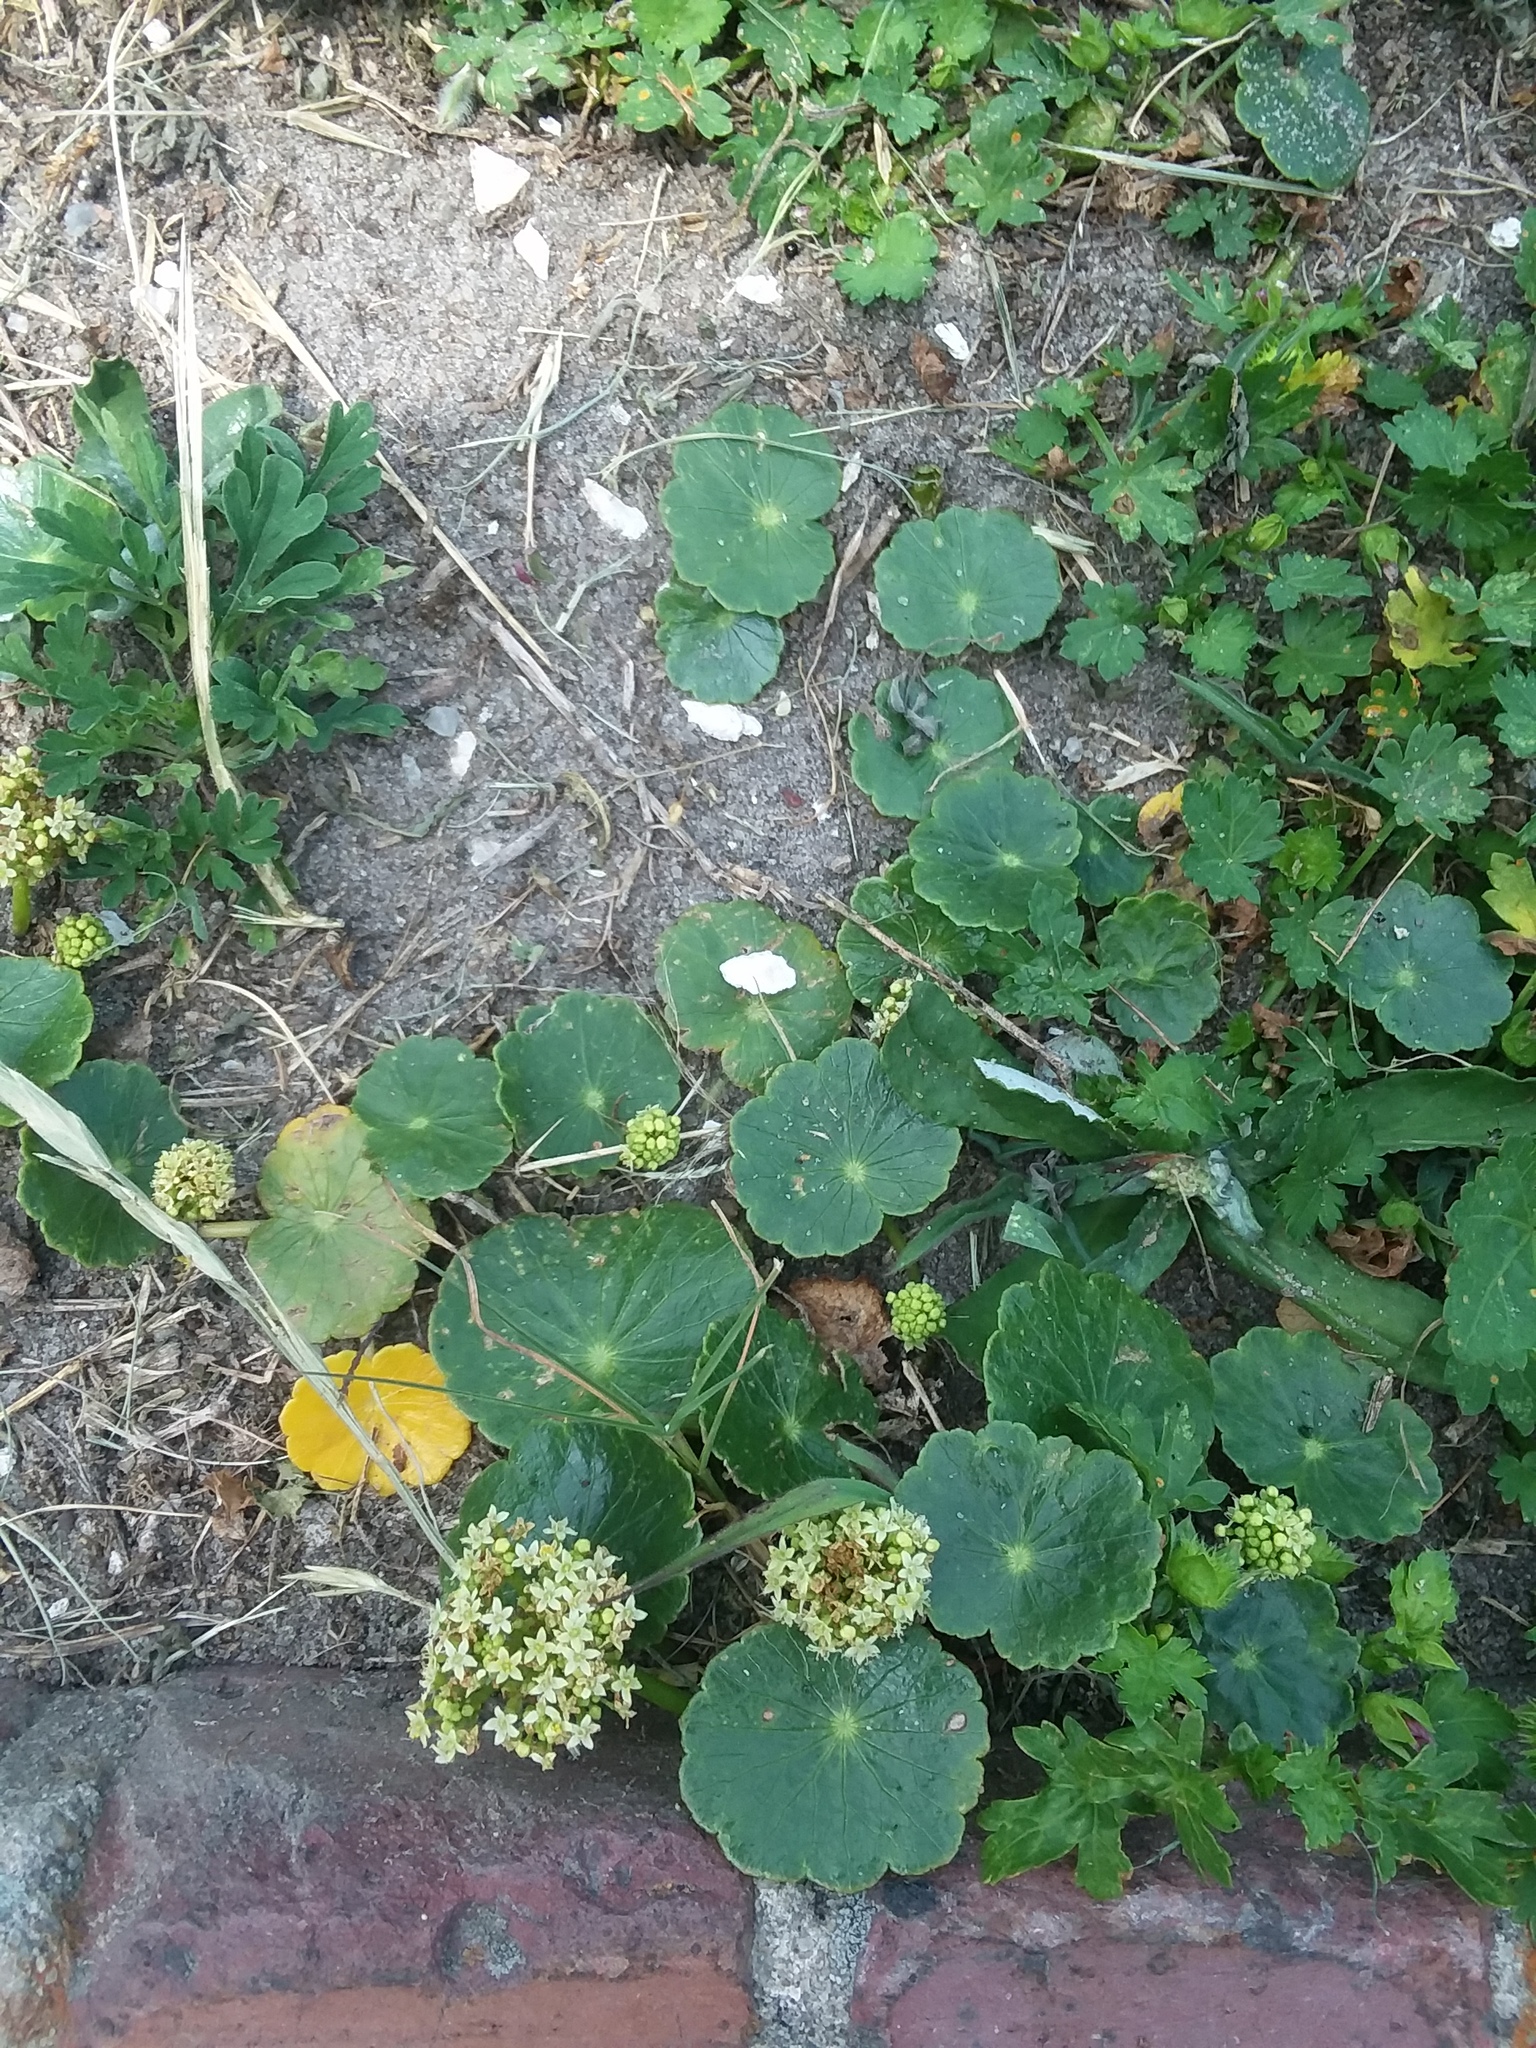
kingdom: Plantae
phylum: Tracheophyta
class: Magnoliopsida
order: Apiales
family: Araliaceae
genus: Hydrocotyle
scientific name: Hydrocotyle bonariensis
